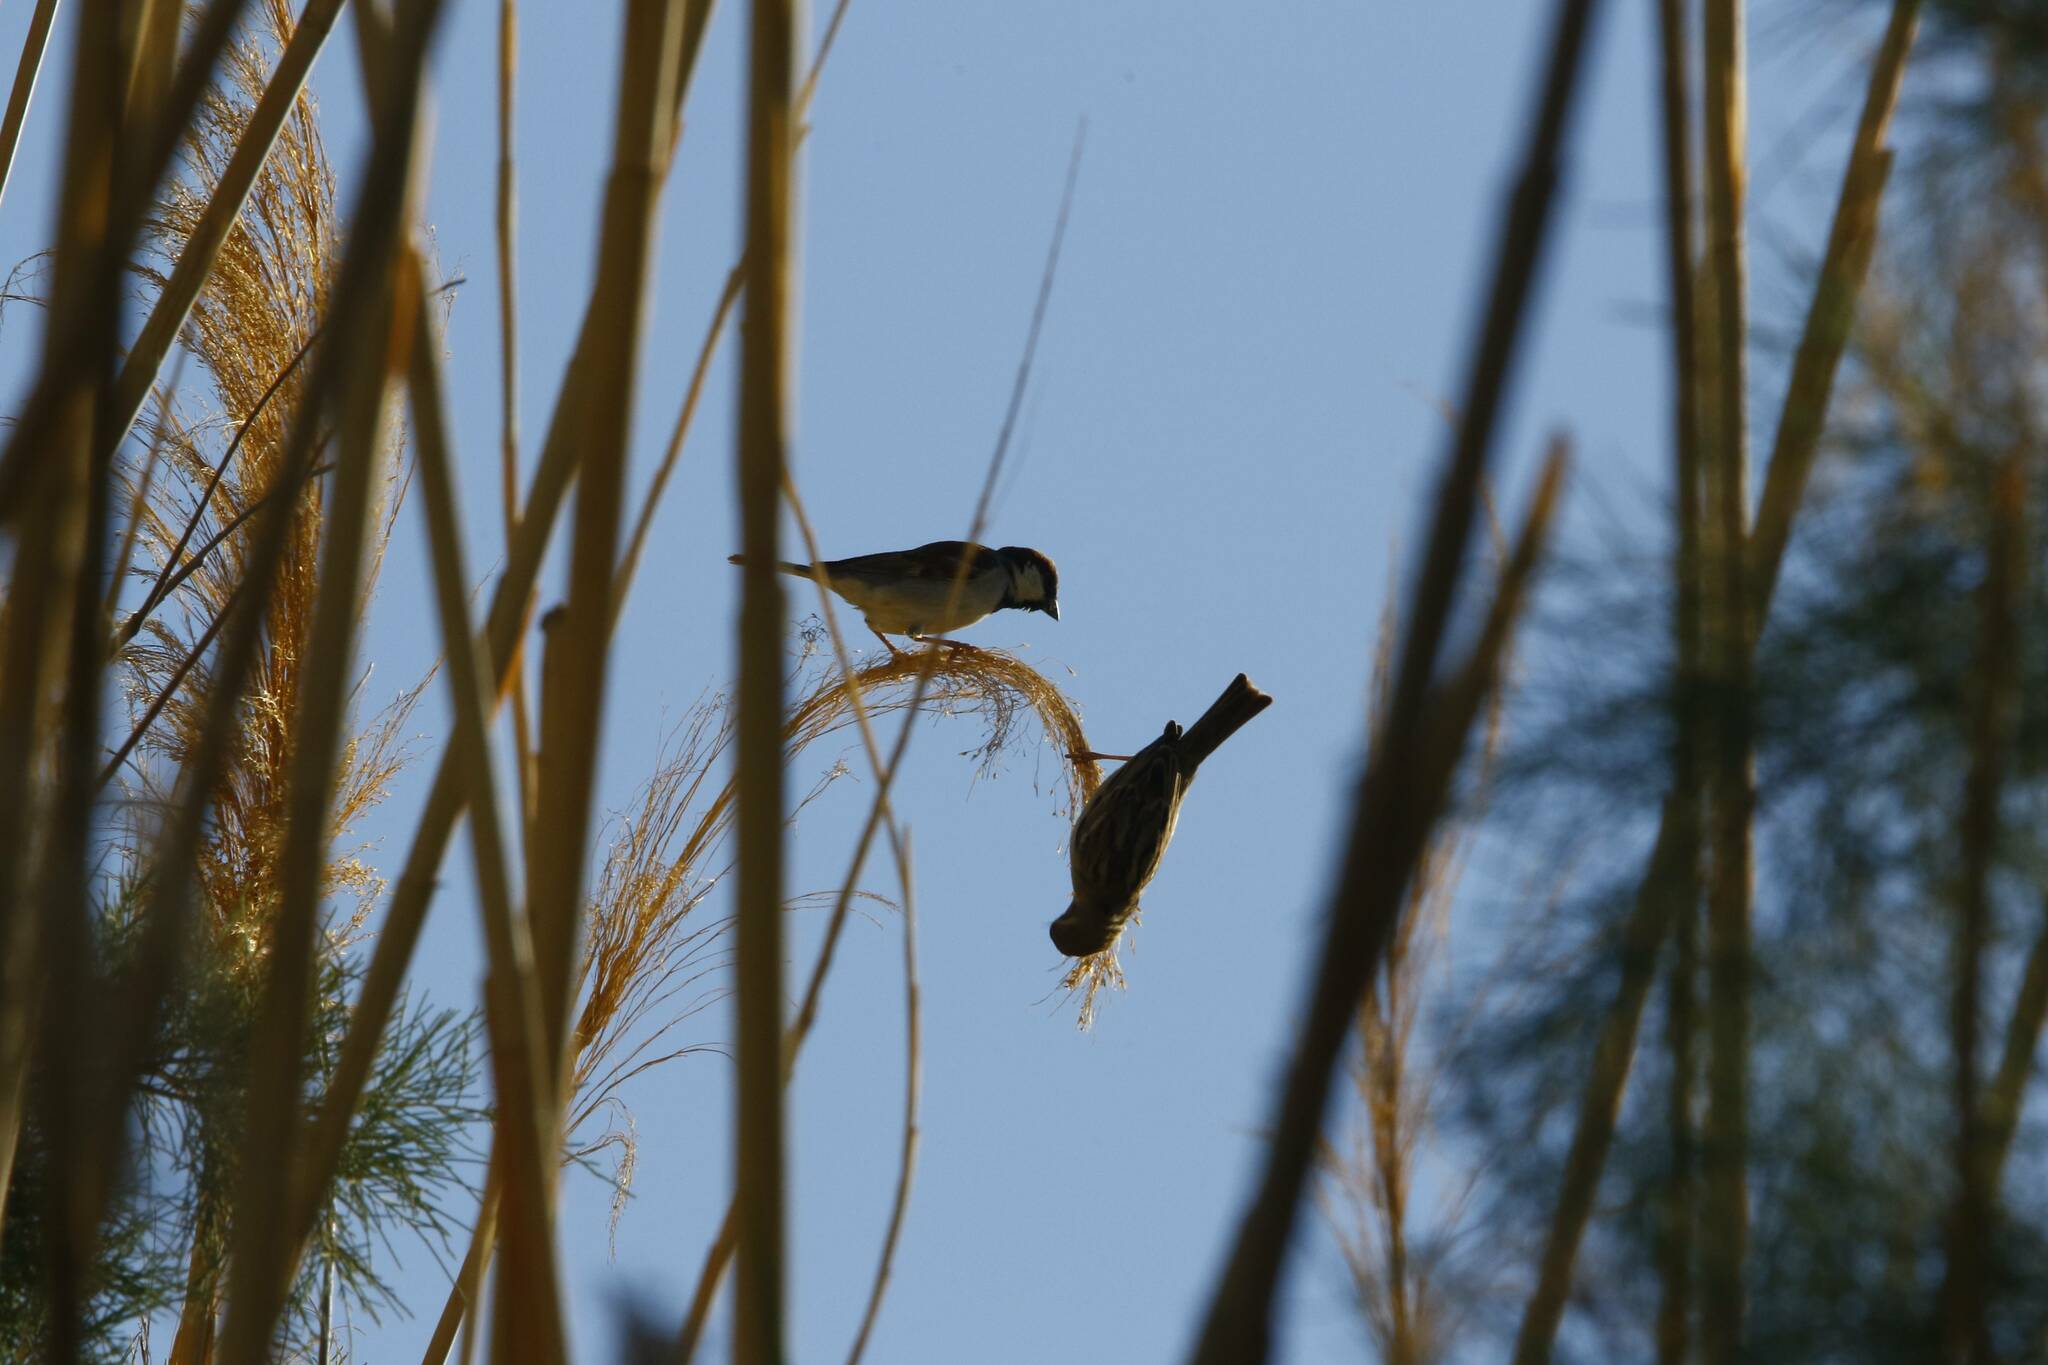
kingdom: Animalia
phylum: Chordata
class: Aves
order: Passeriformes
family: Passeridae
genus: Passer
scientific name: Passer domesticus
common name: House sparrow
